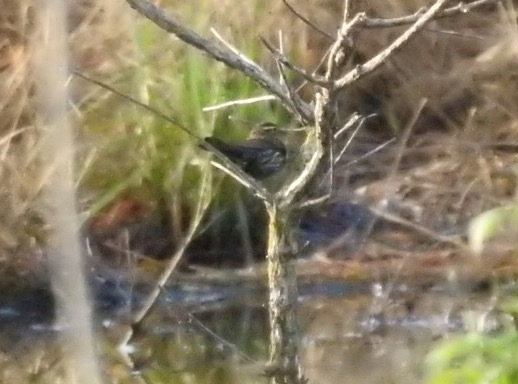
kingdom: Animalia
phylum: Chordata
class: Aves
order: Passeriformes
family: Icteridae
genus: Agelaius
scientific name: Agelaius phoeniceus
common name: Red-winged blackbird
